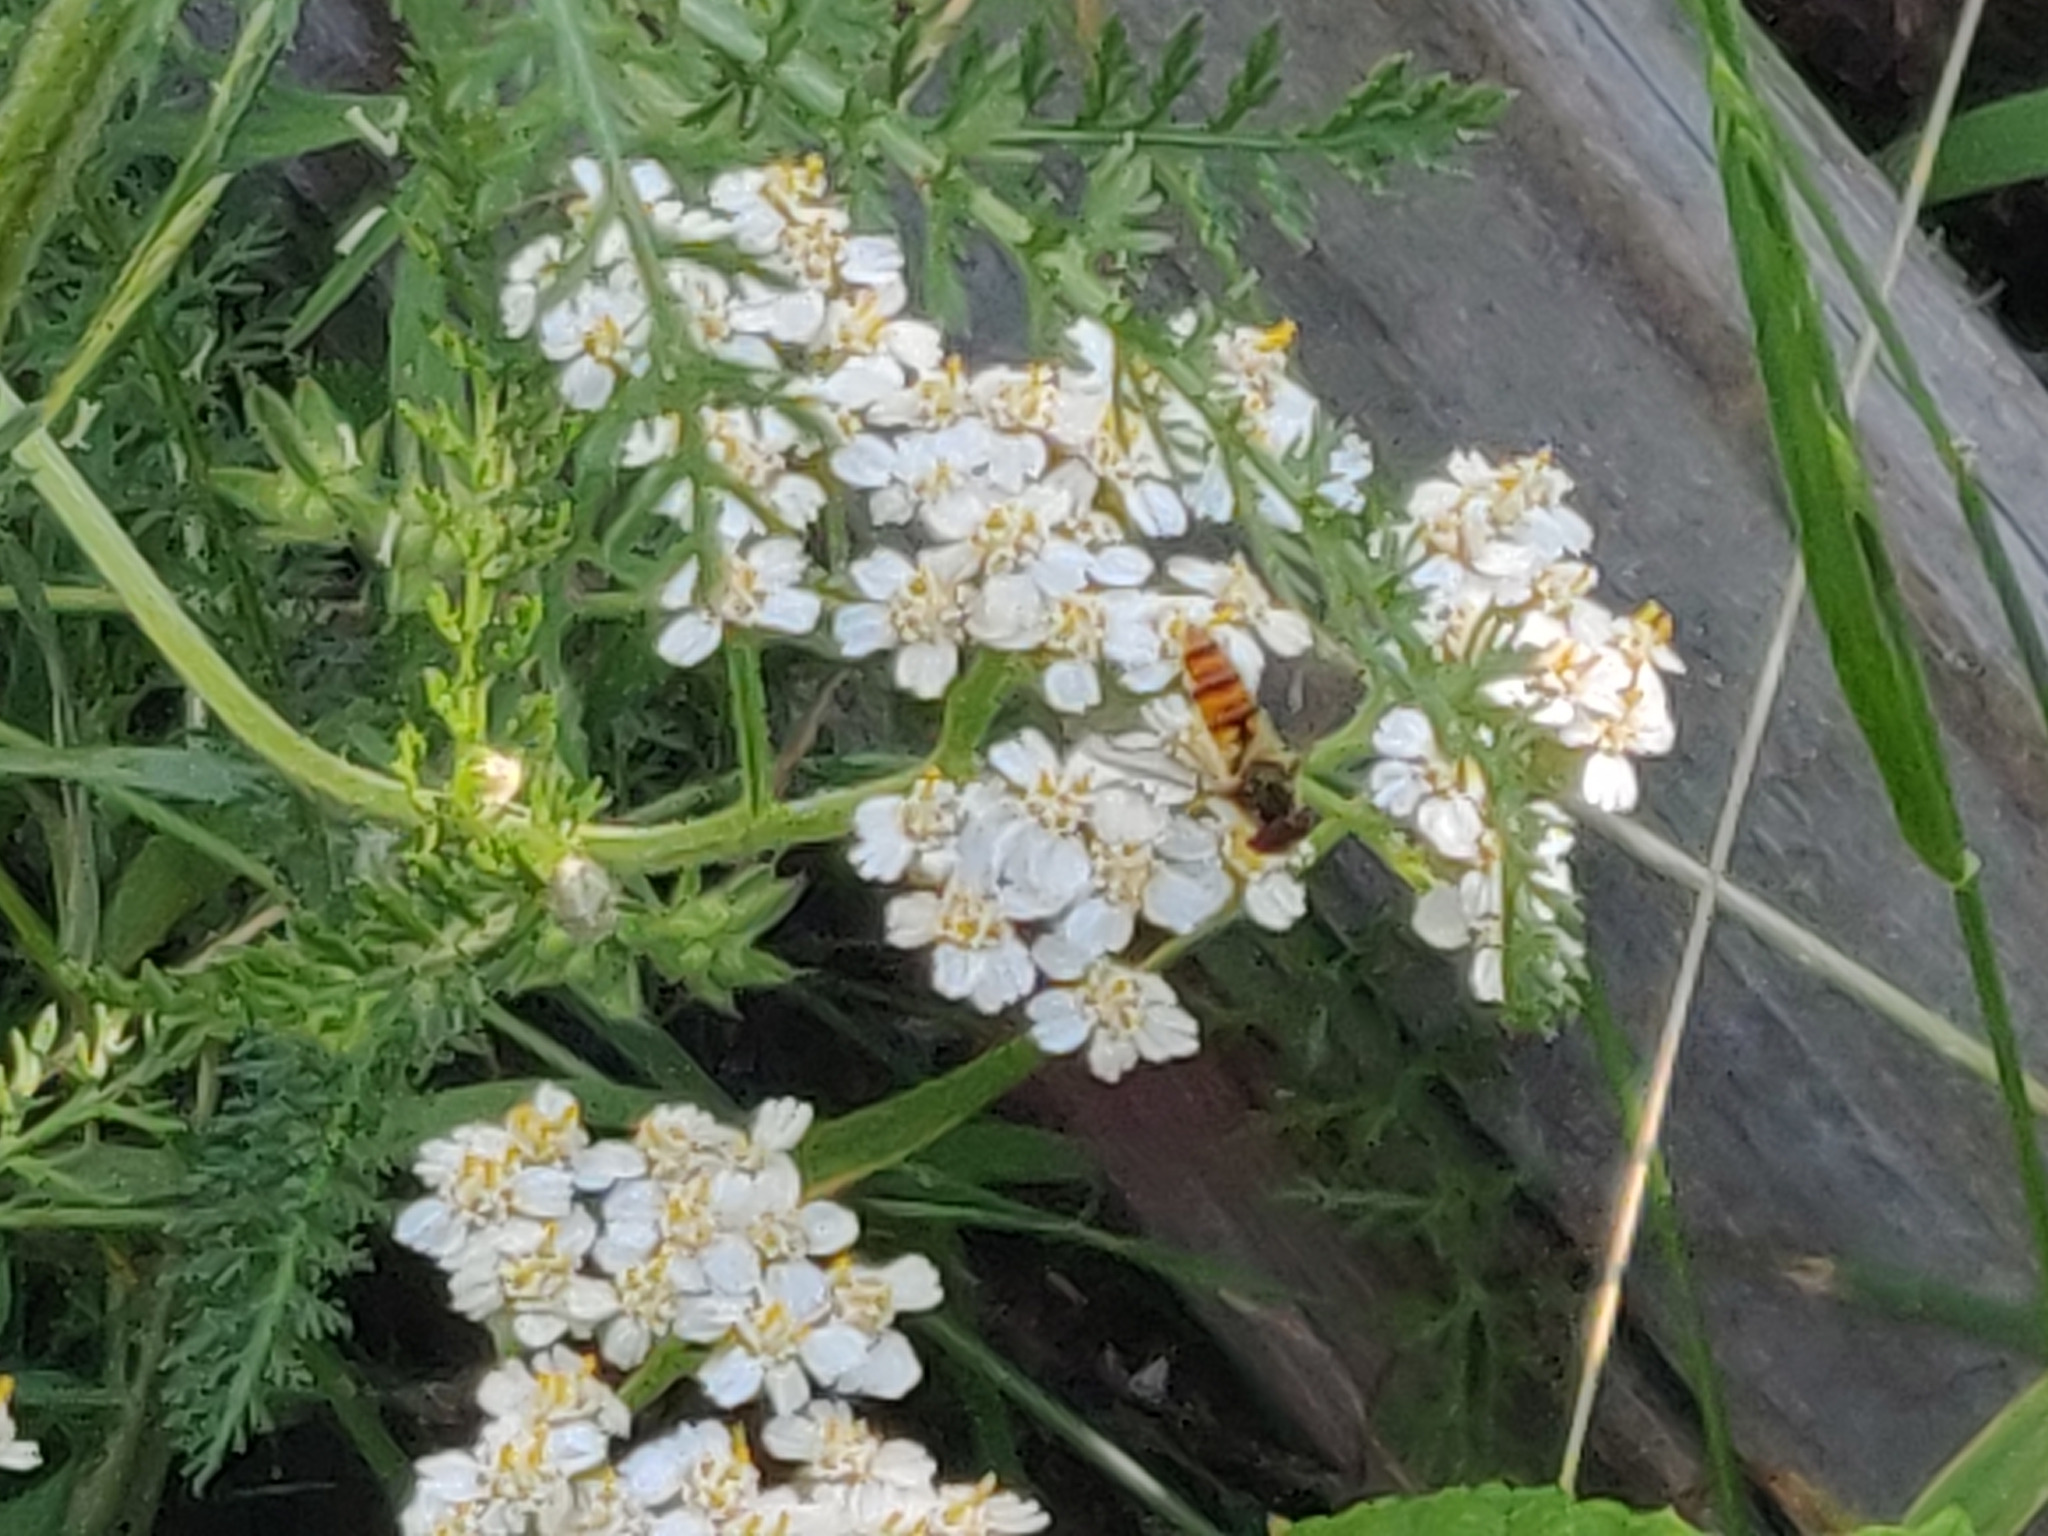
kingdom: Animalia
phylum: Arthropoda
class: Insecta
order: Diptera
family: Syrphidae
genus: Episyrphus
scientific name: Episyrphus balteatus
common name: Marmalade hoverfly
